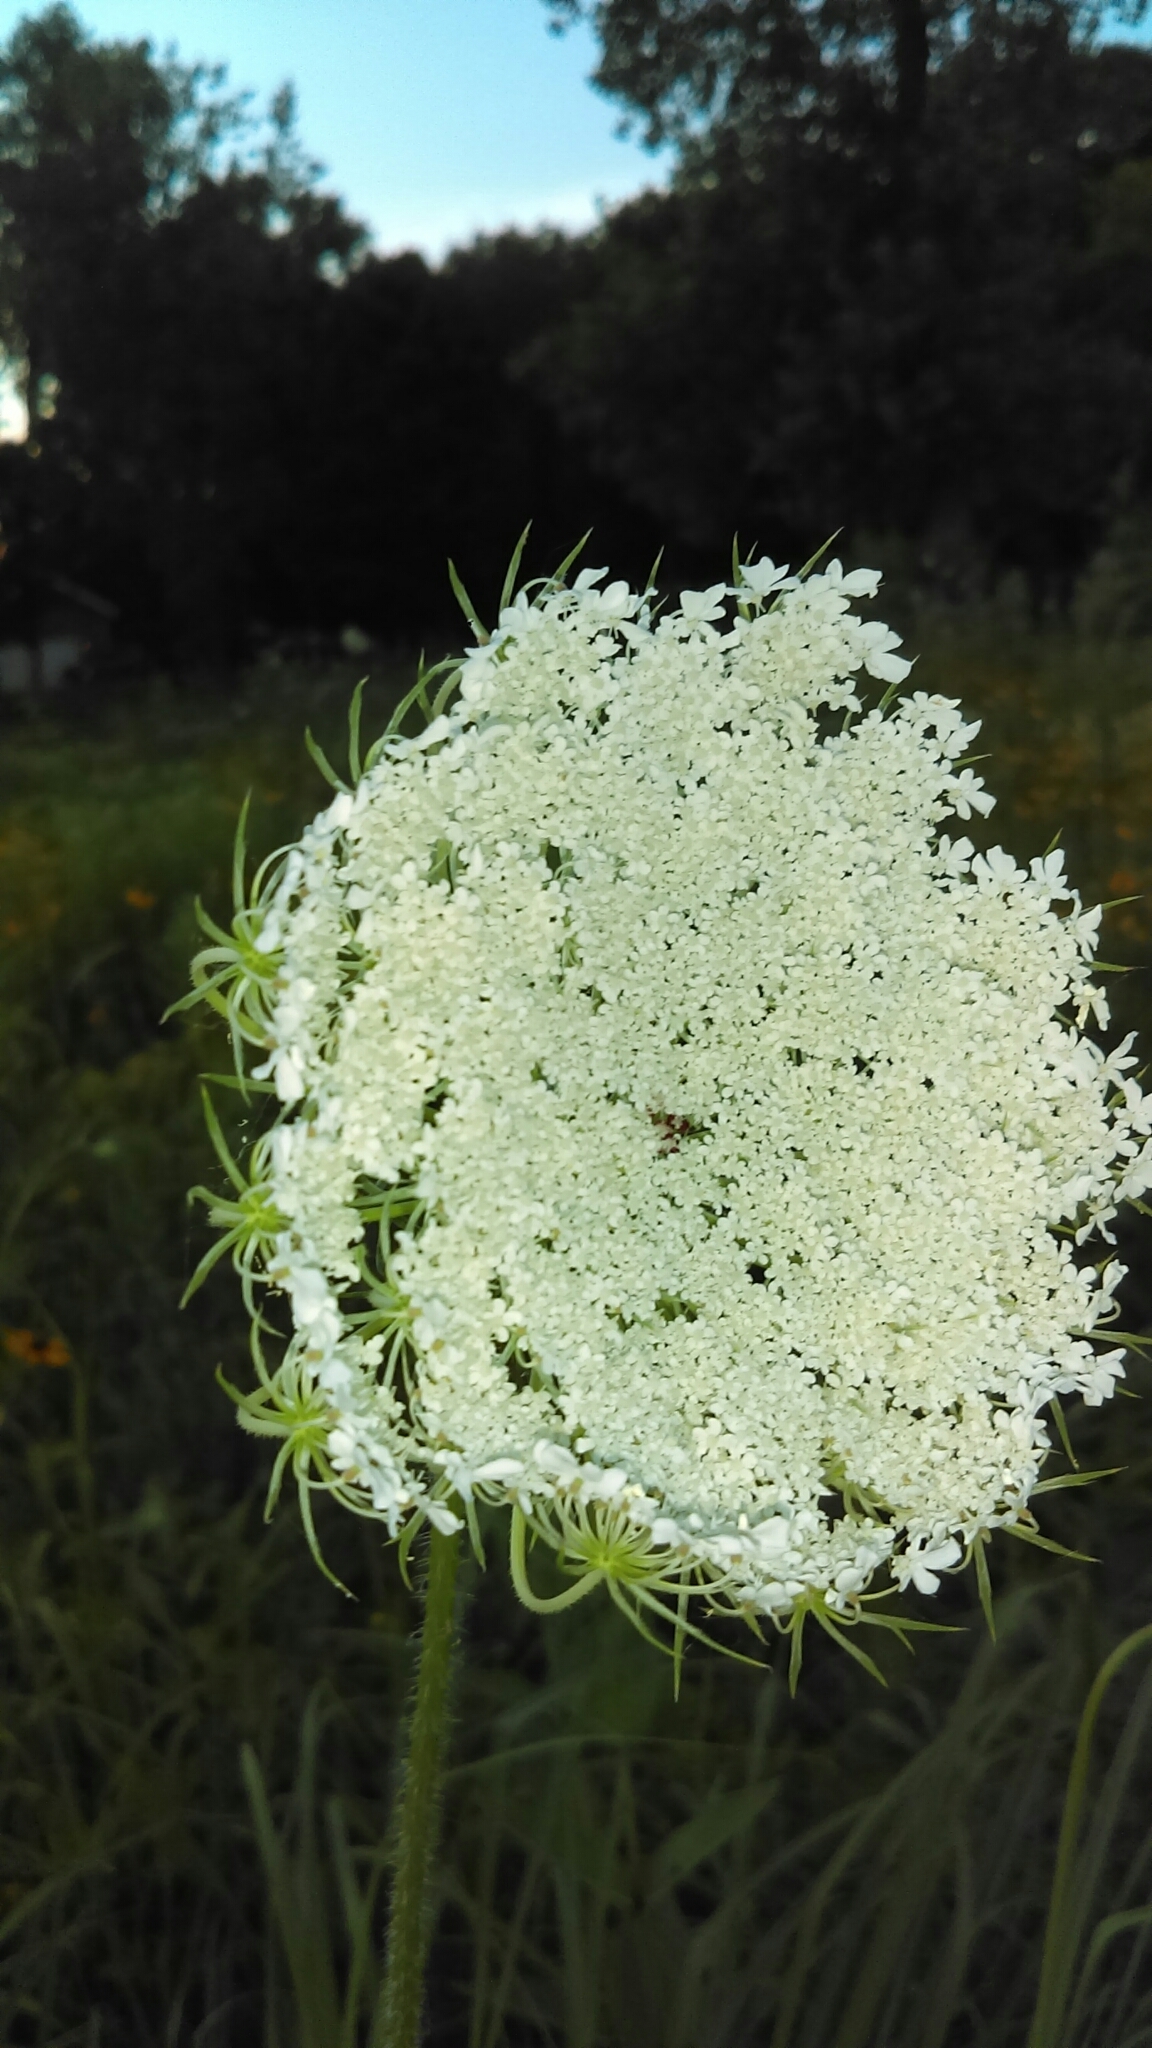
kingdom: Plantae
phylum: Tracheophyta
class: Magnoliopsida
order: Apiales
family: Apiaceae
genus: Daucus
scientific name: Daucus carota
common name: Wild carrot
